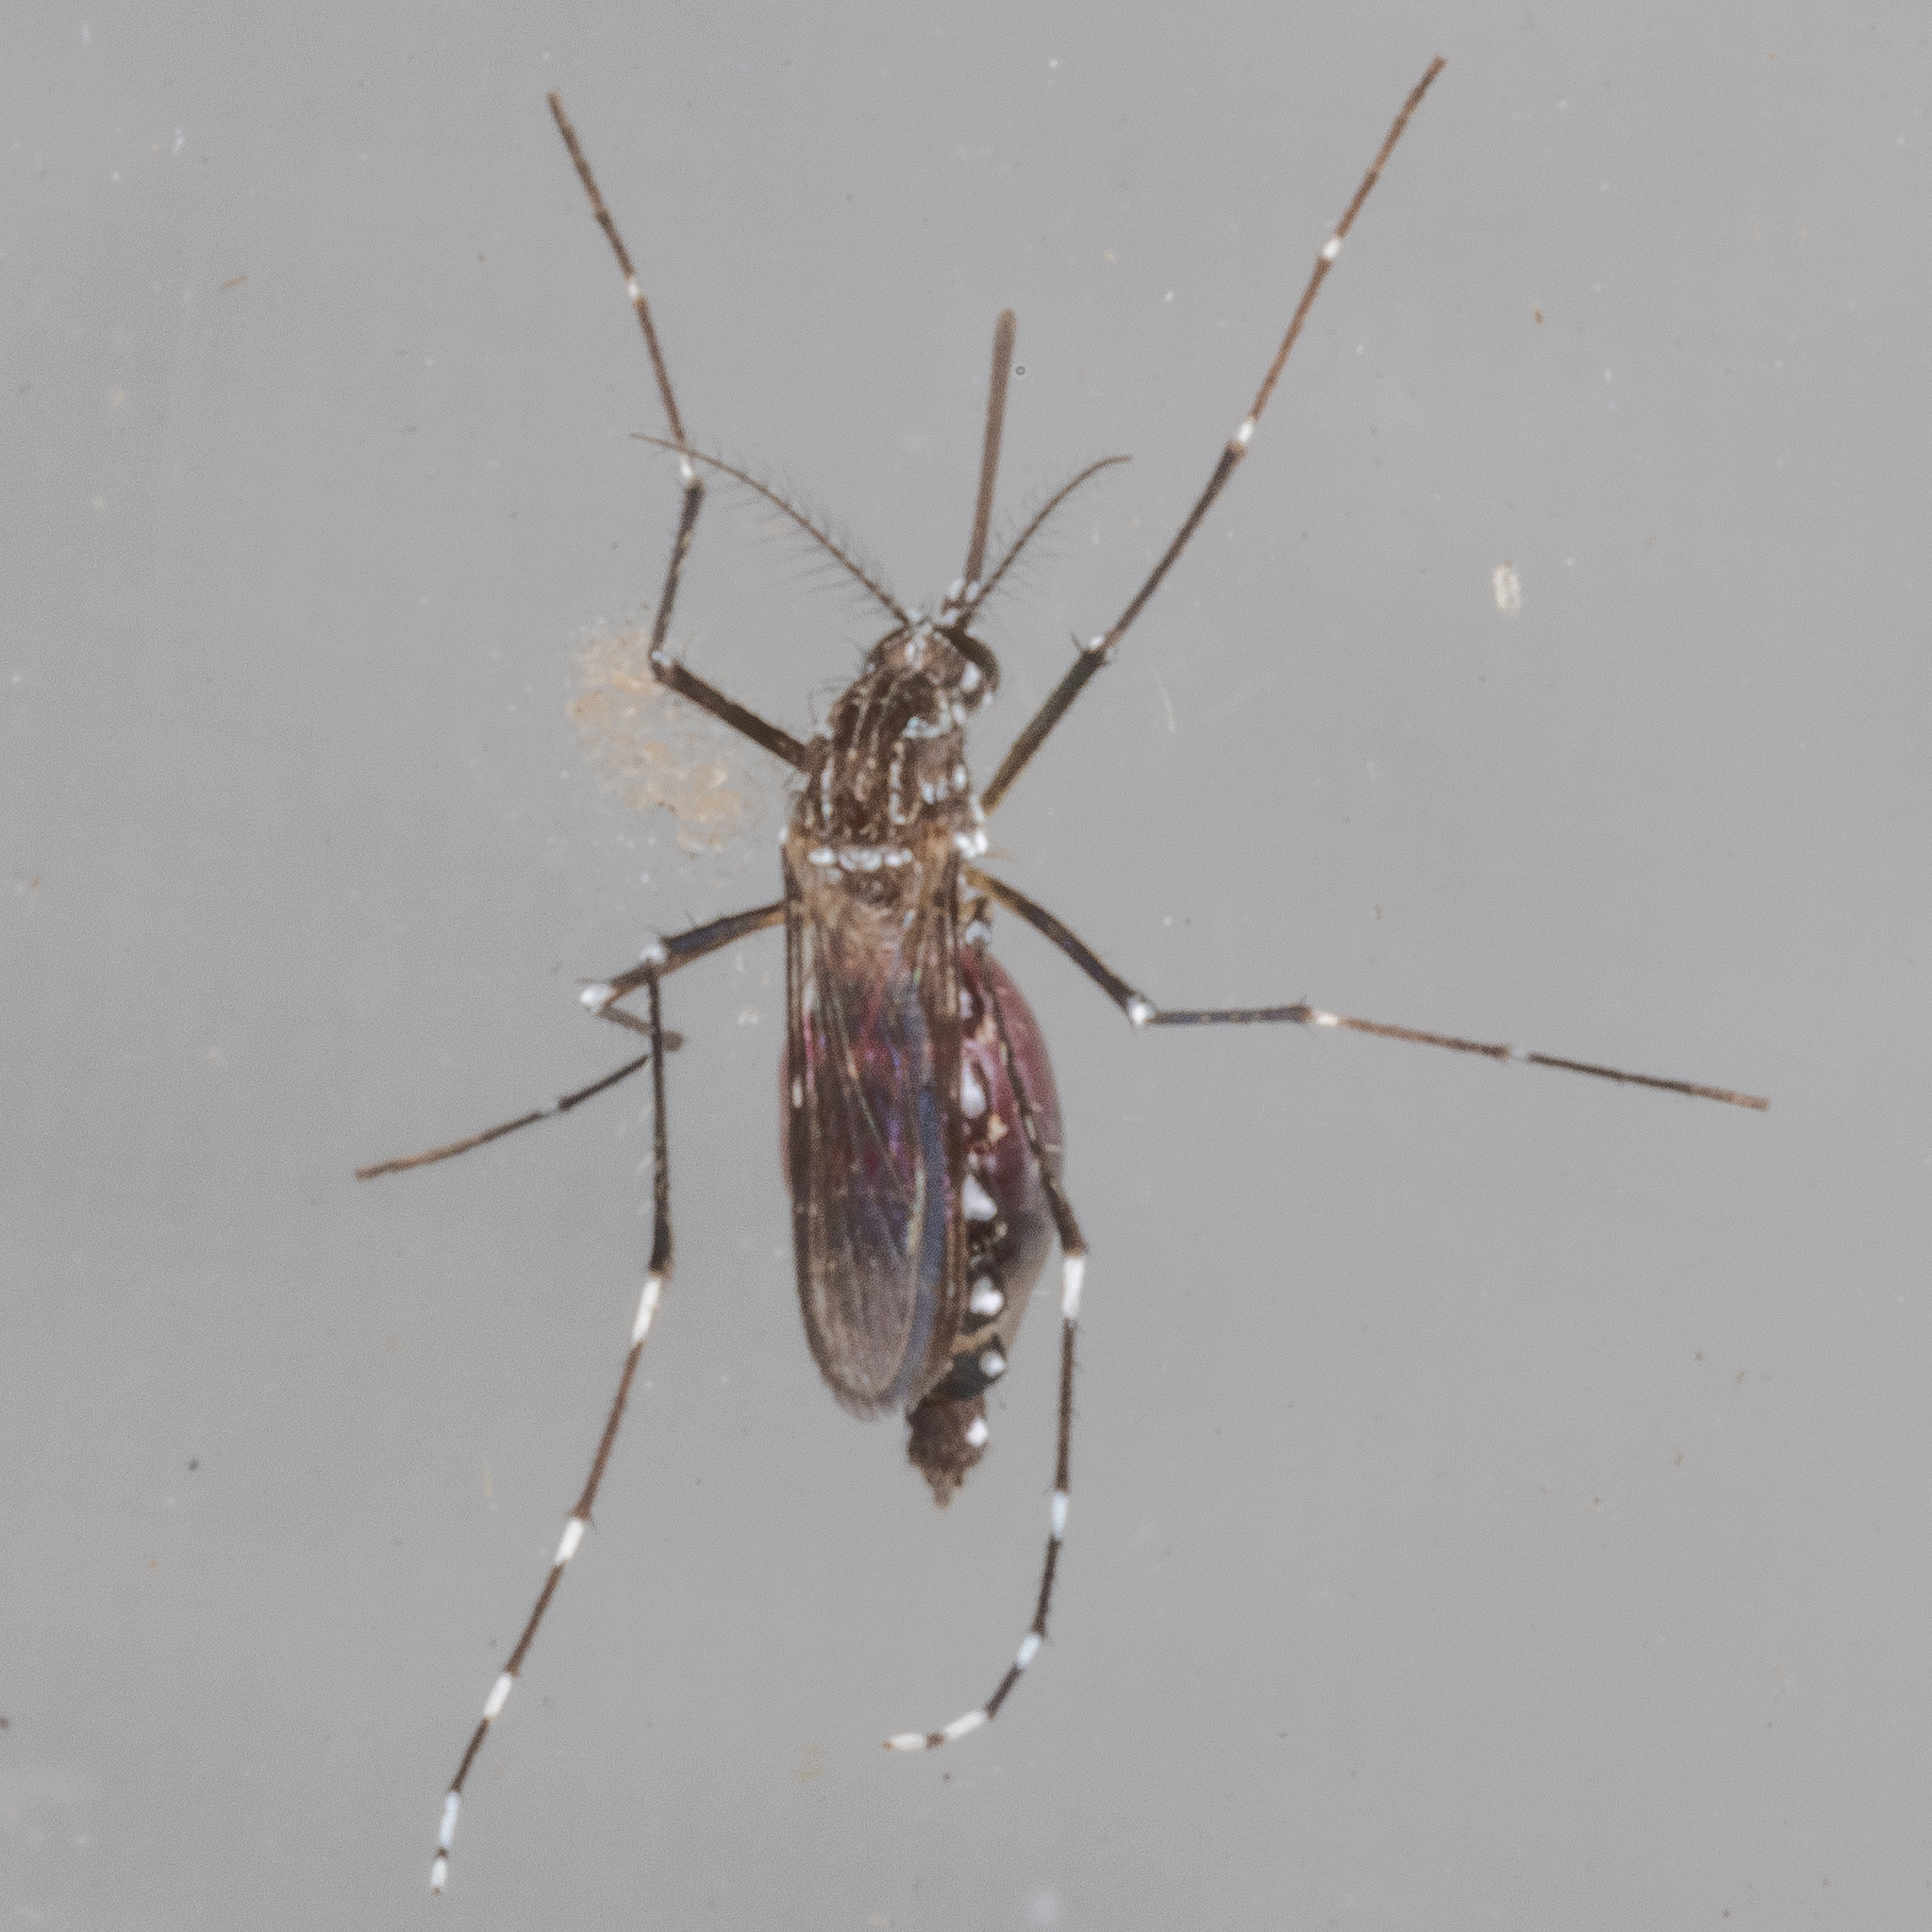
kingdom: Animalia
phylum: Arthropoda
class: Insecta
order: Diptera
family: Culicidae
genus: Aedes
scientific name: Aedes aegypti
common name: Yellow fever mosquito
